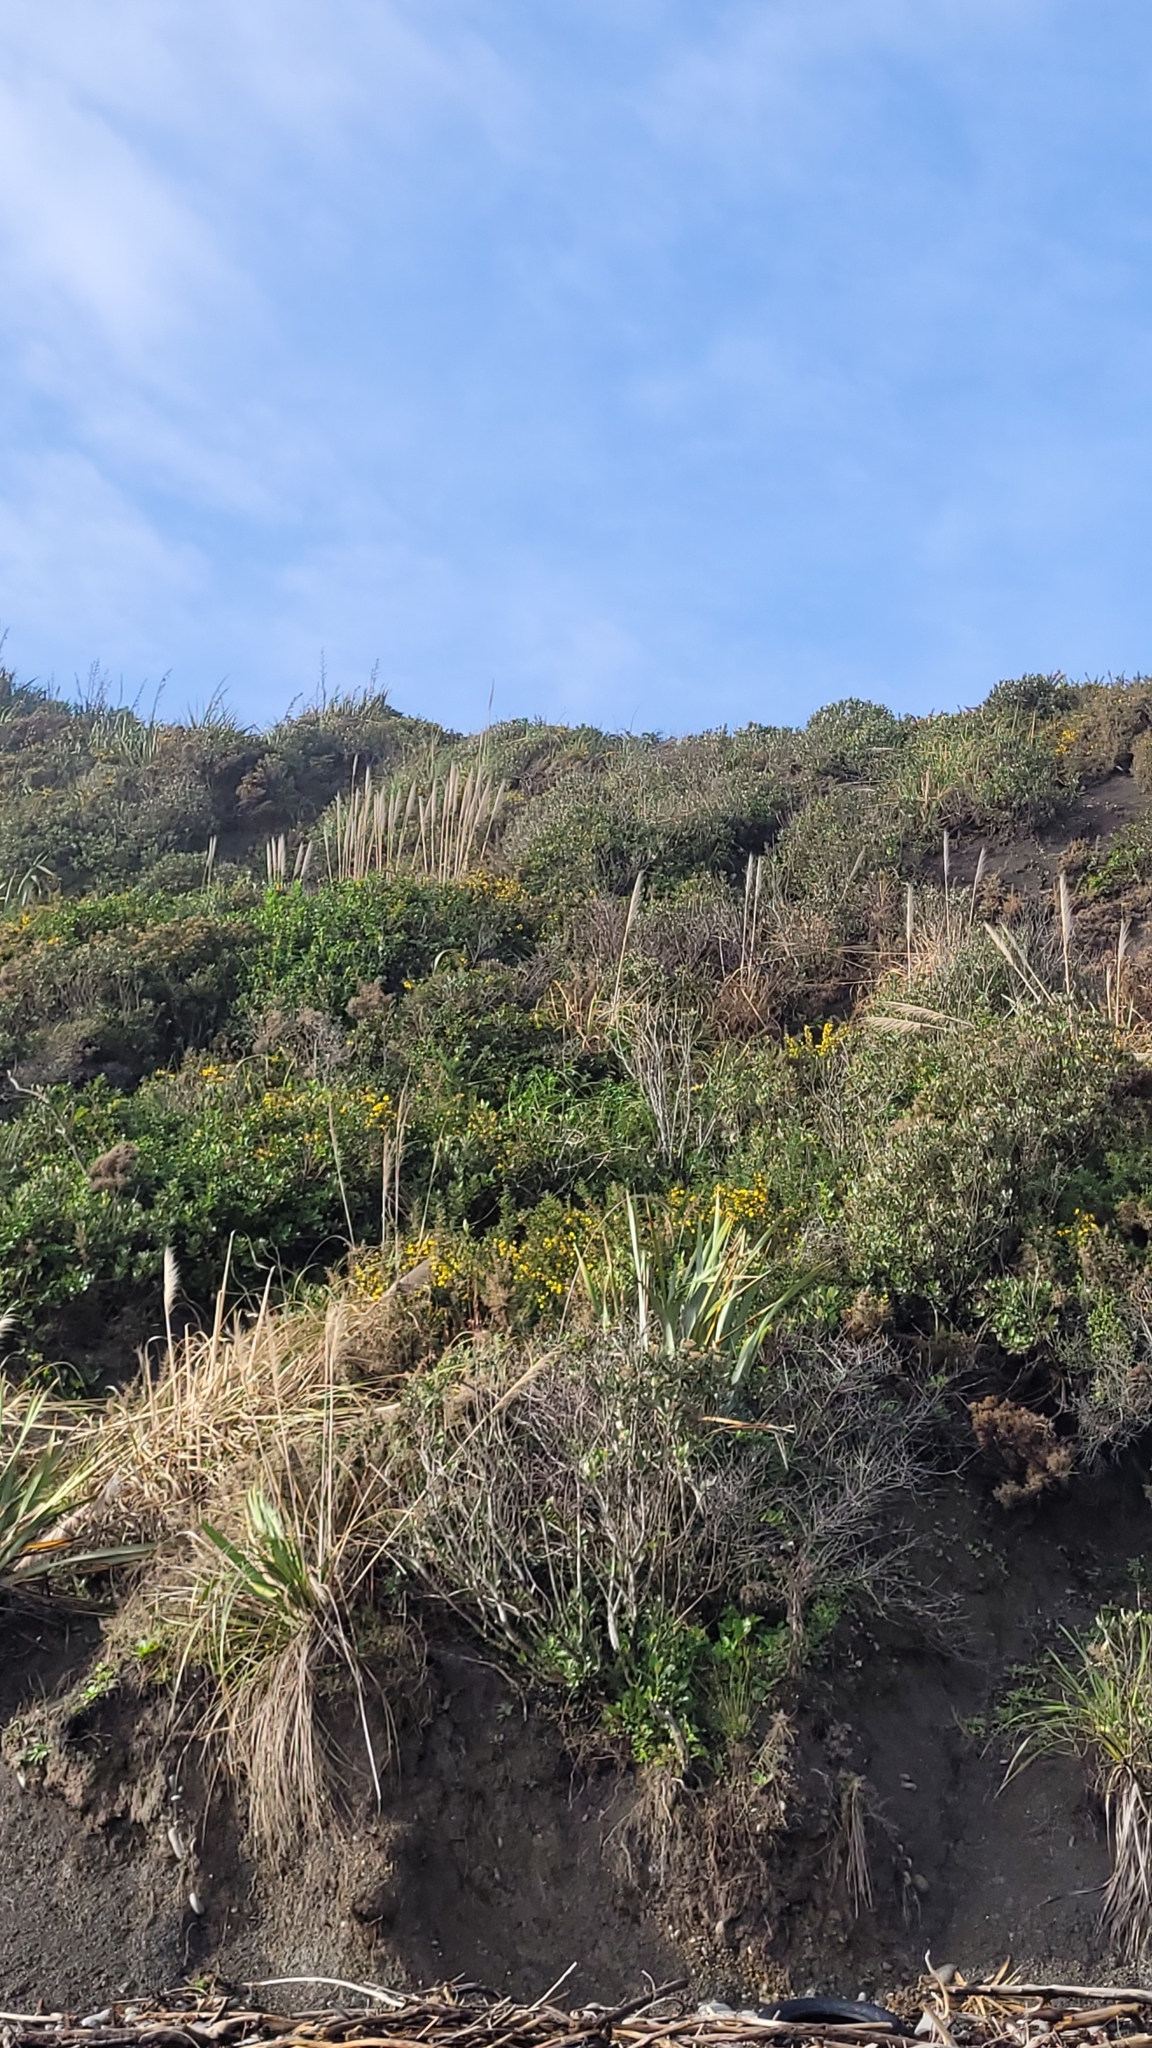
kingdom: Plantae
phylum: Tracheophyta
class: Liliopsida
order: Poales
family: Poaceae
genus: Cortaderia
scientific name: Cortaderia jubata
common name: Purple pampas grass
